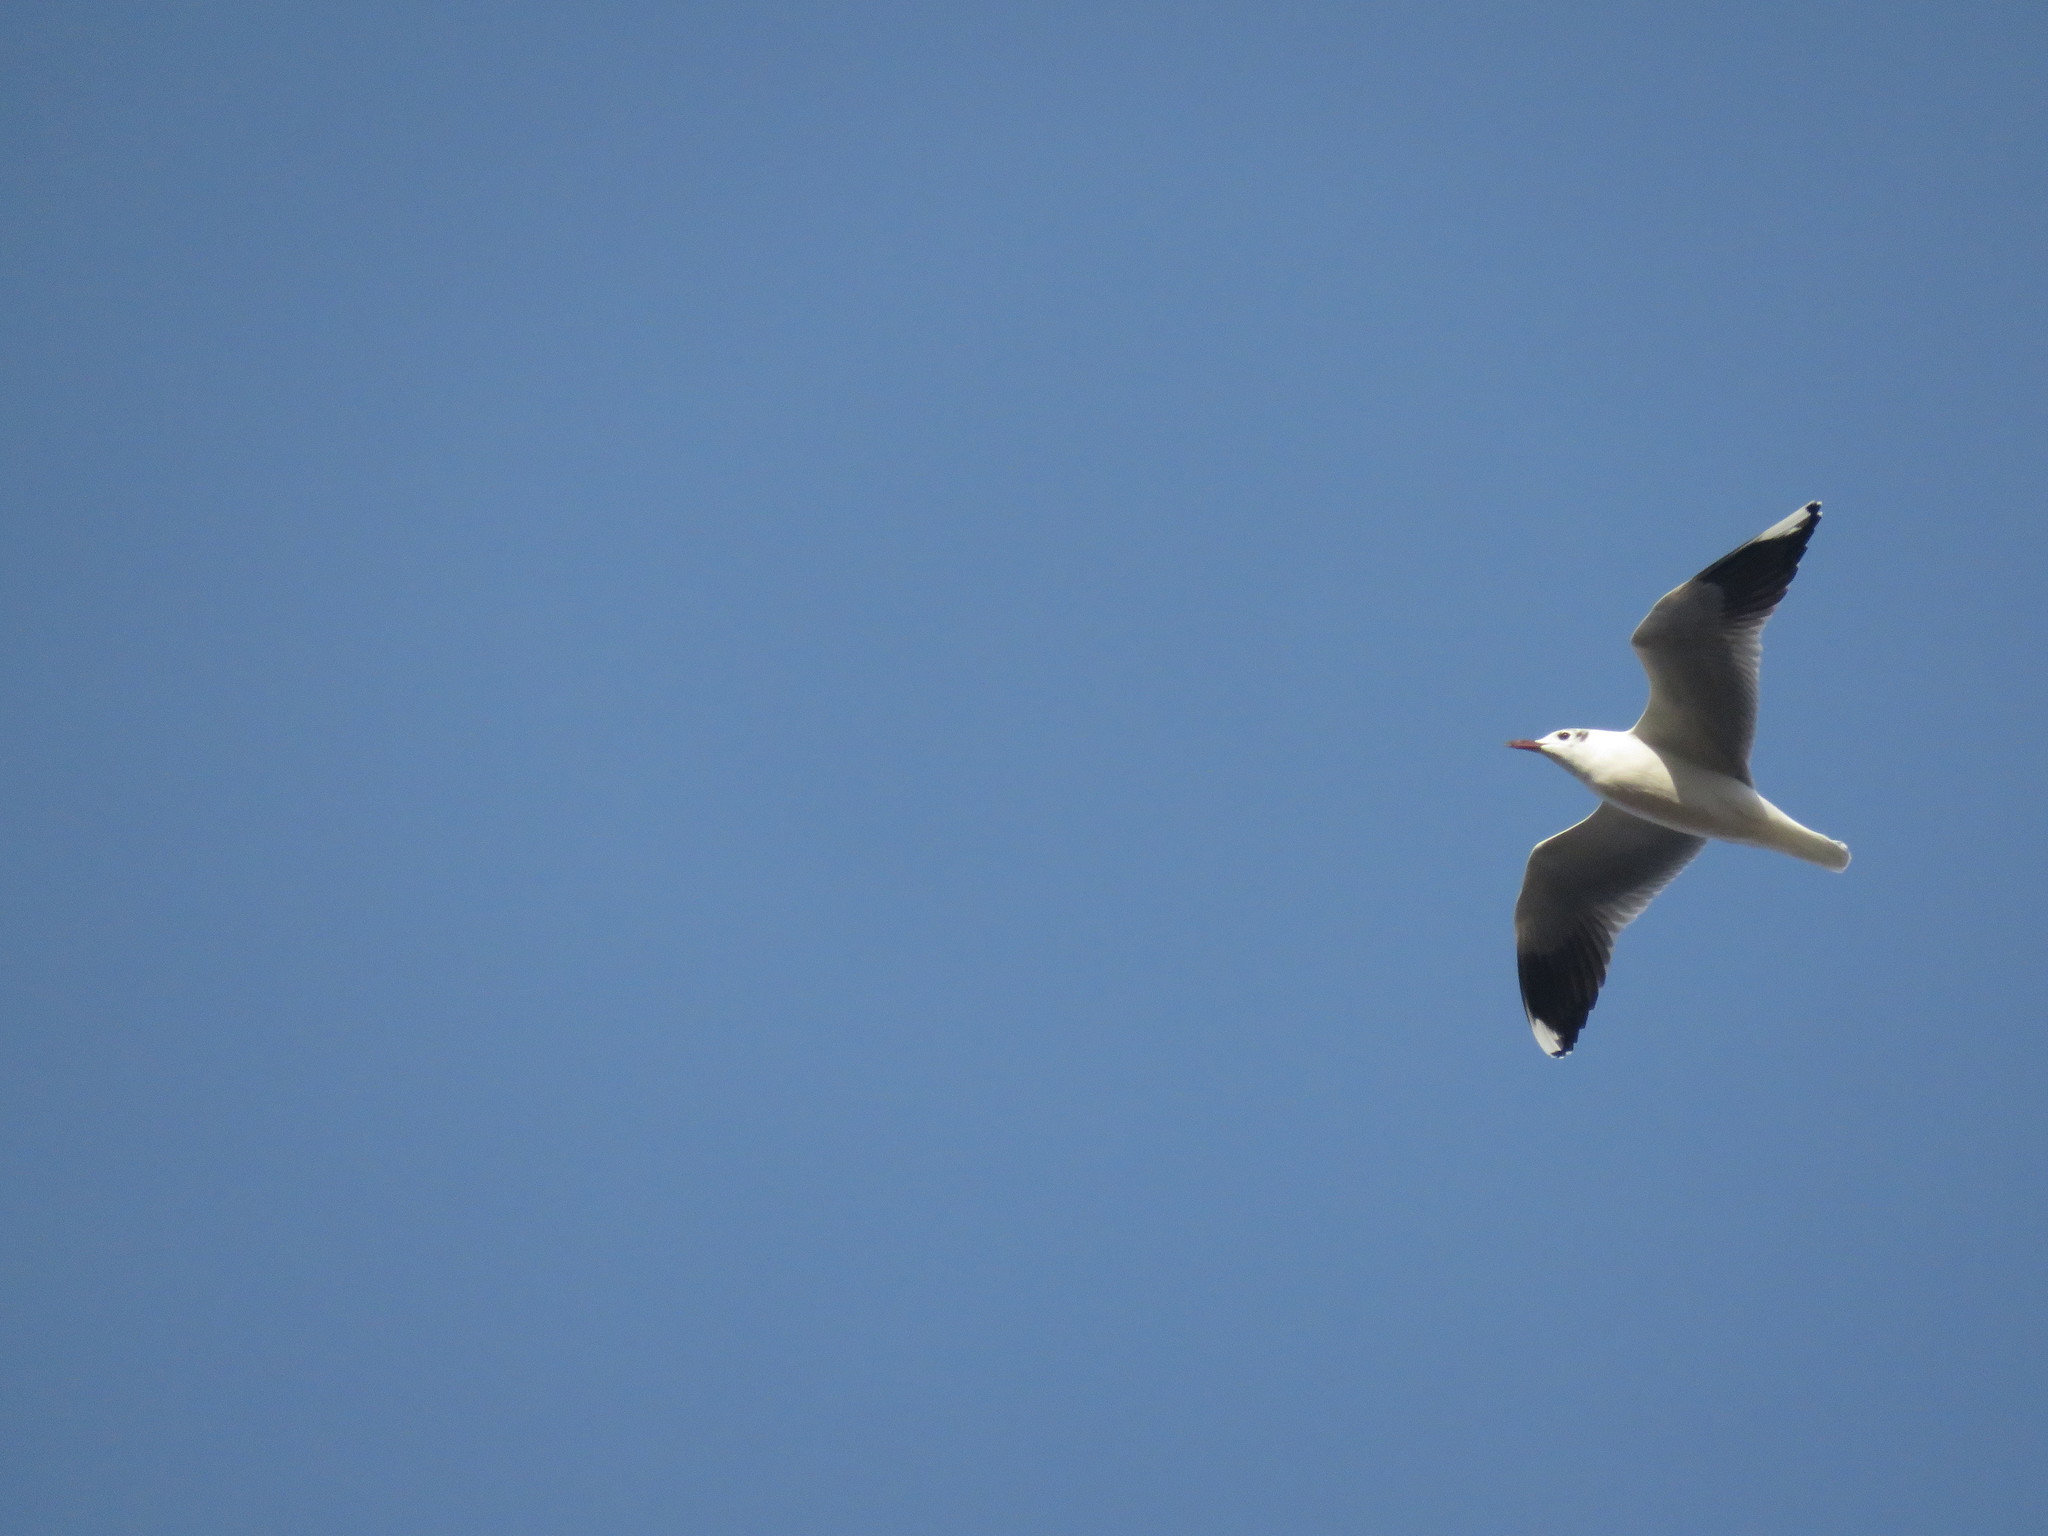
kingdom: Animalia
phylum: Chordata
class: Aves
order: Charadriiformes
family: Laridae
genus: Chroicocephalus
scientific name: Chroicocephalus maculipennis
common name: Brown-hooded gull
